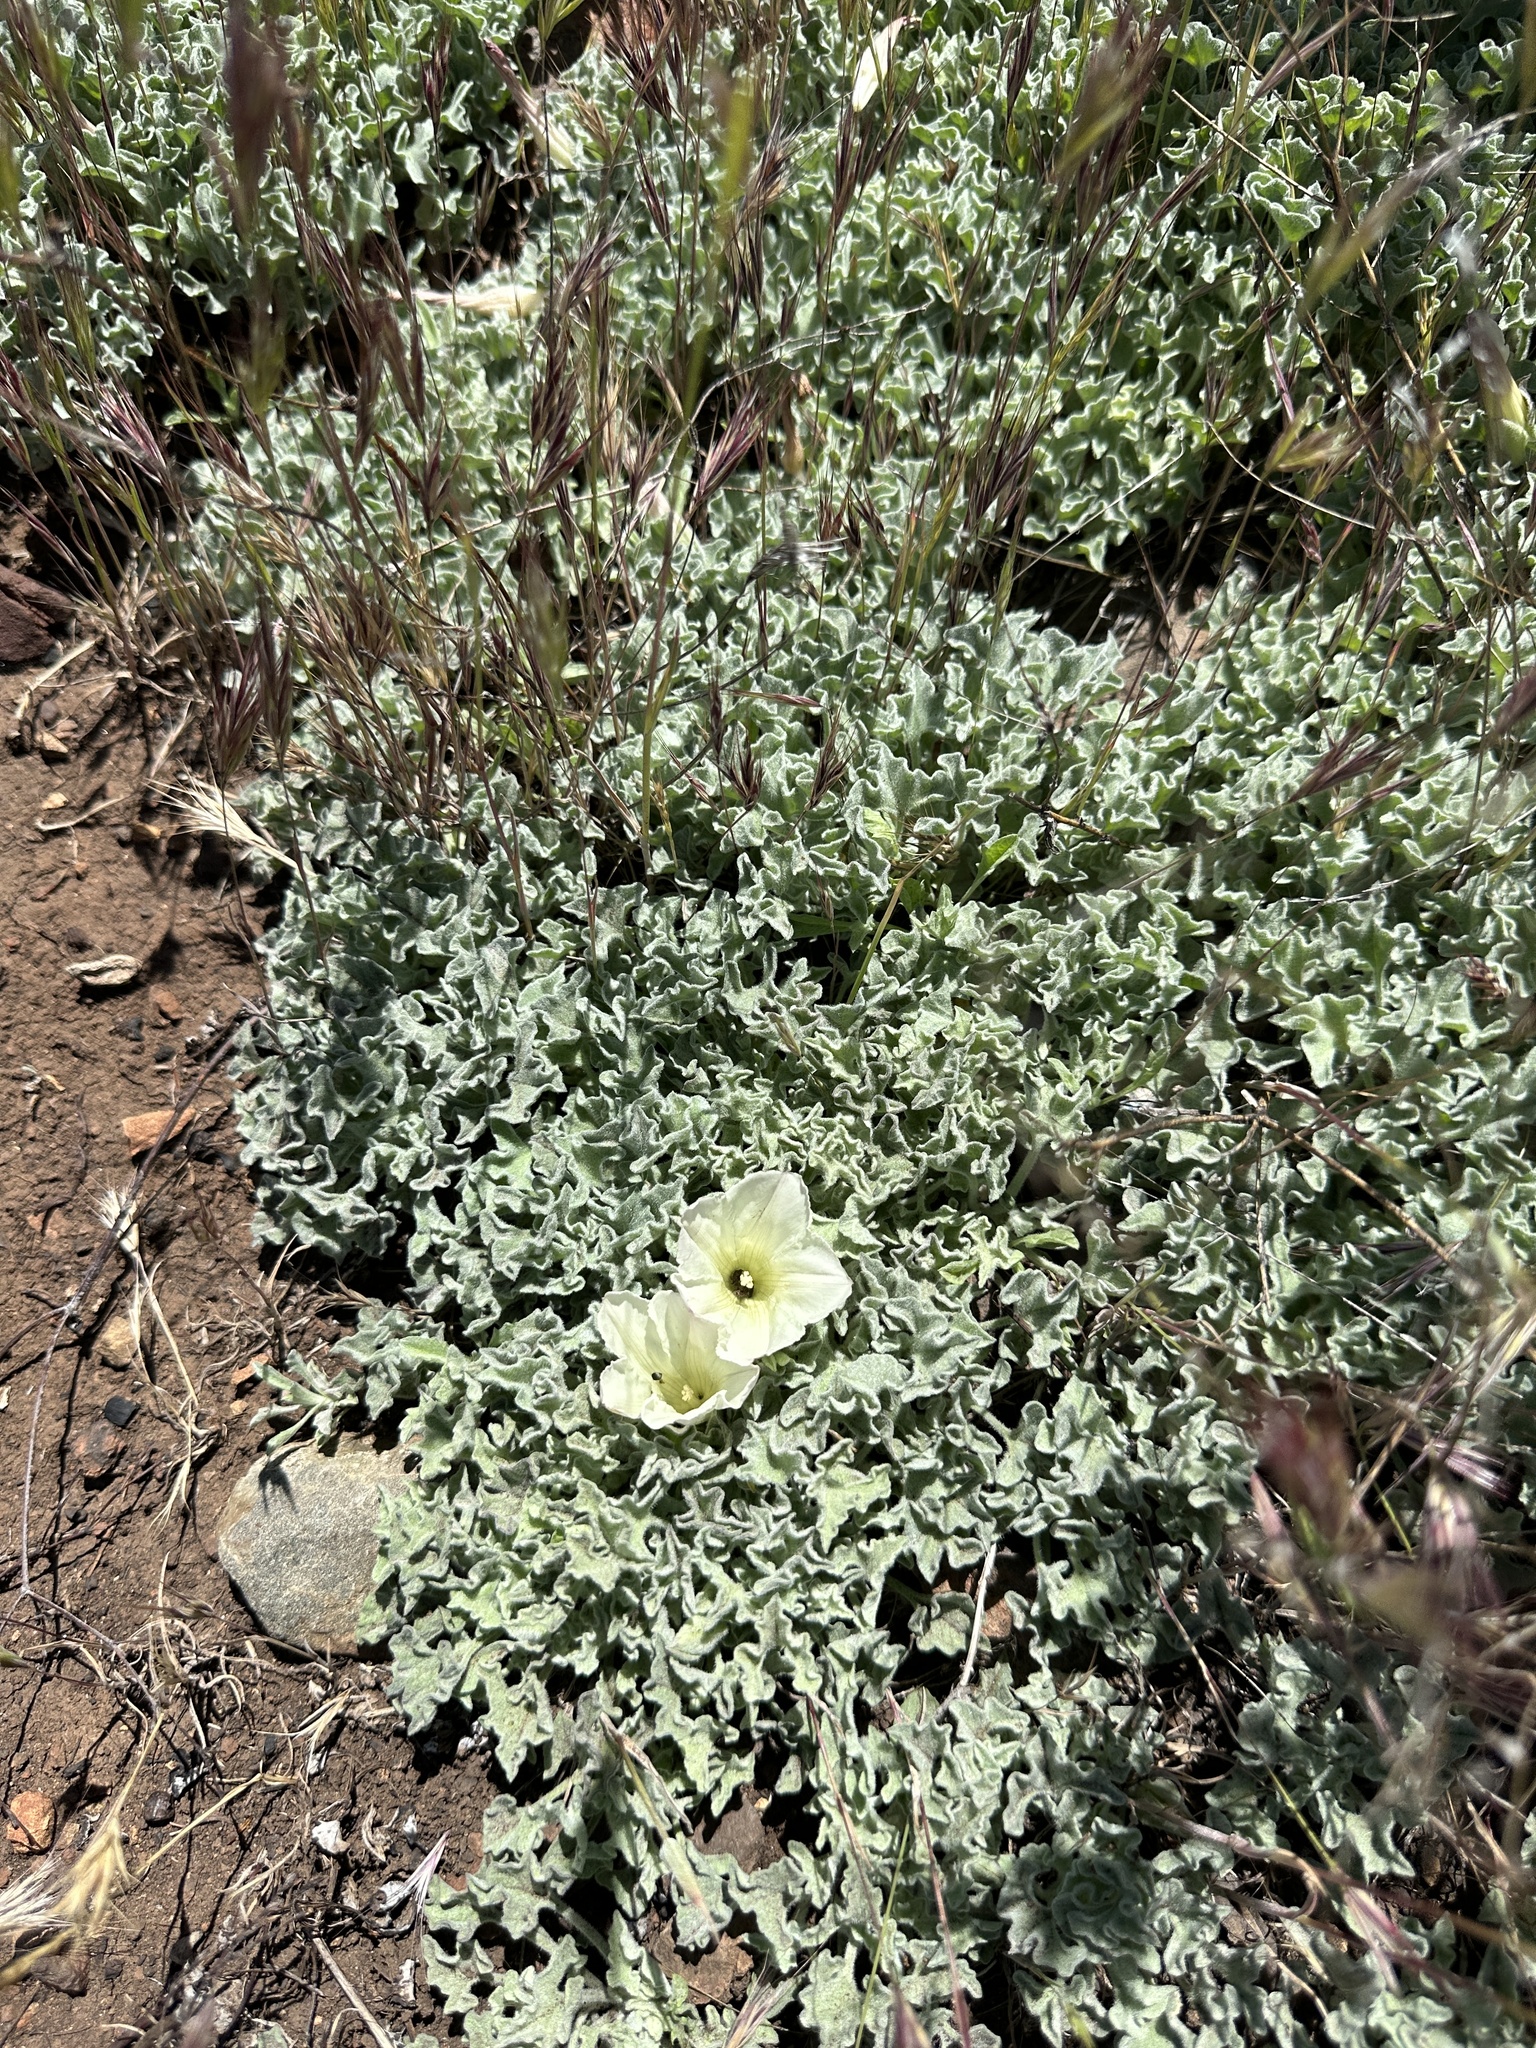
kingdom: Plantae
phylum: Tracheophyta
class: Magnoliopsida
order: Solanales
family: Convolvulaceae
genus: Calystegia
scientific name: Calystegia collina
